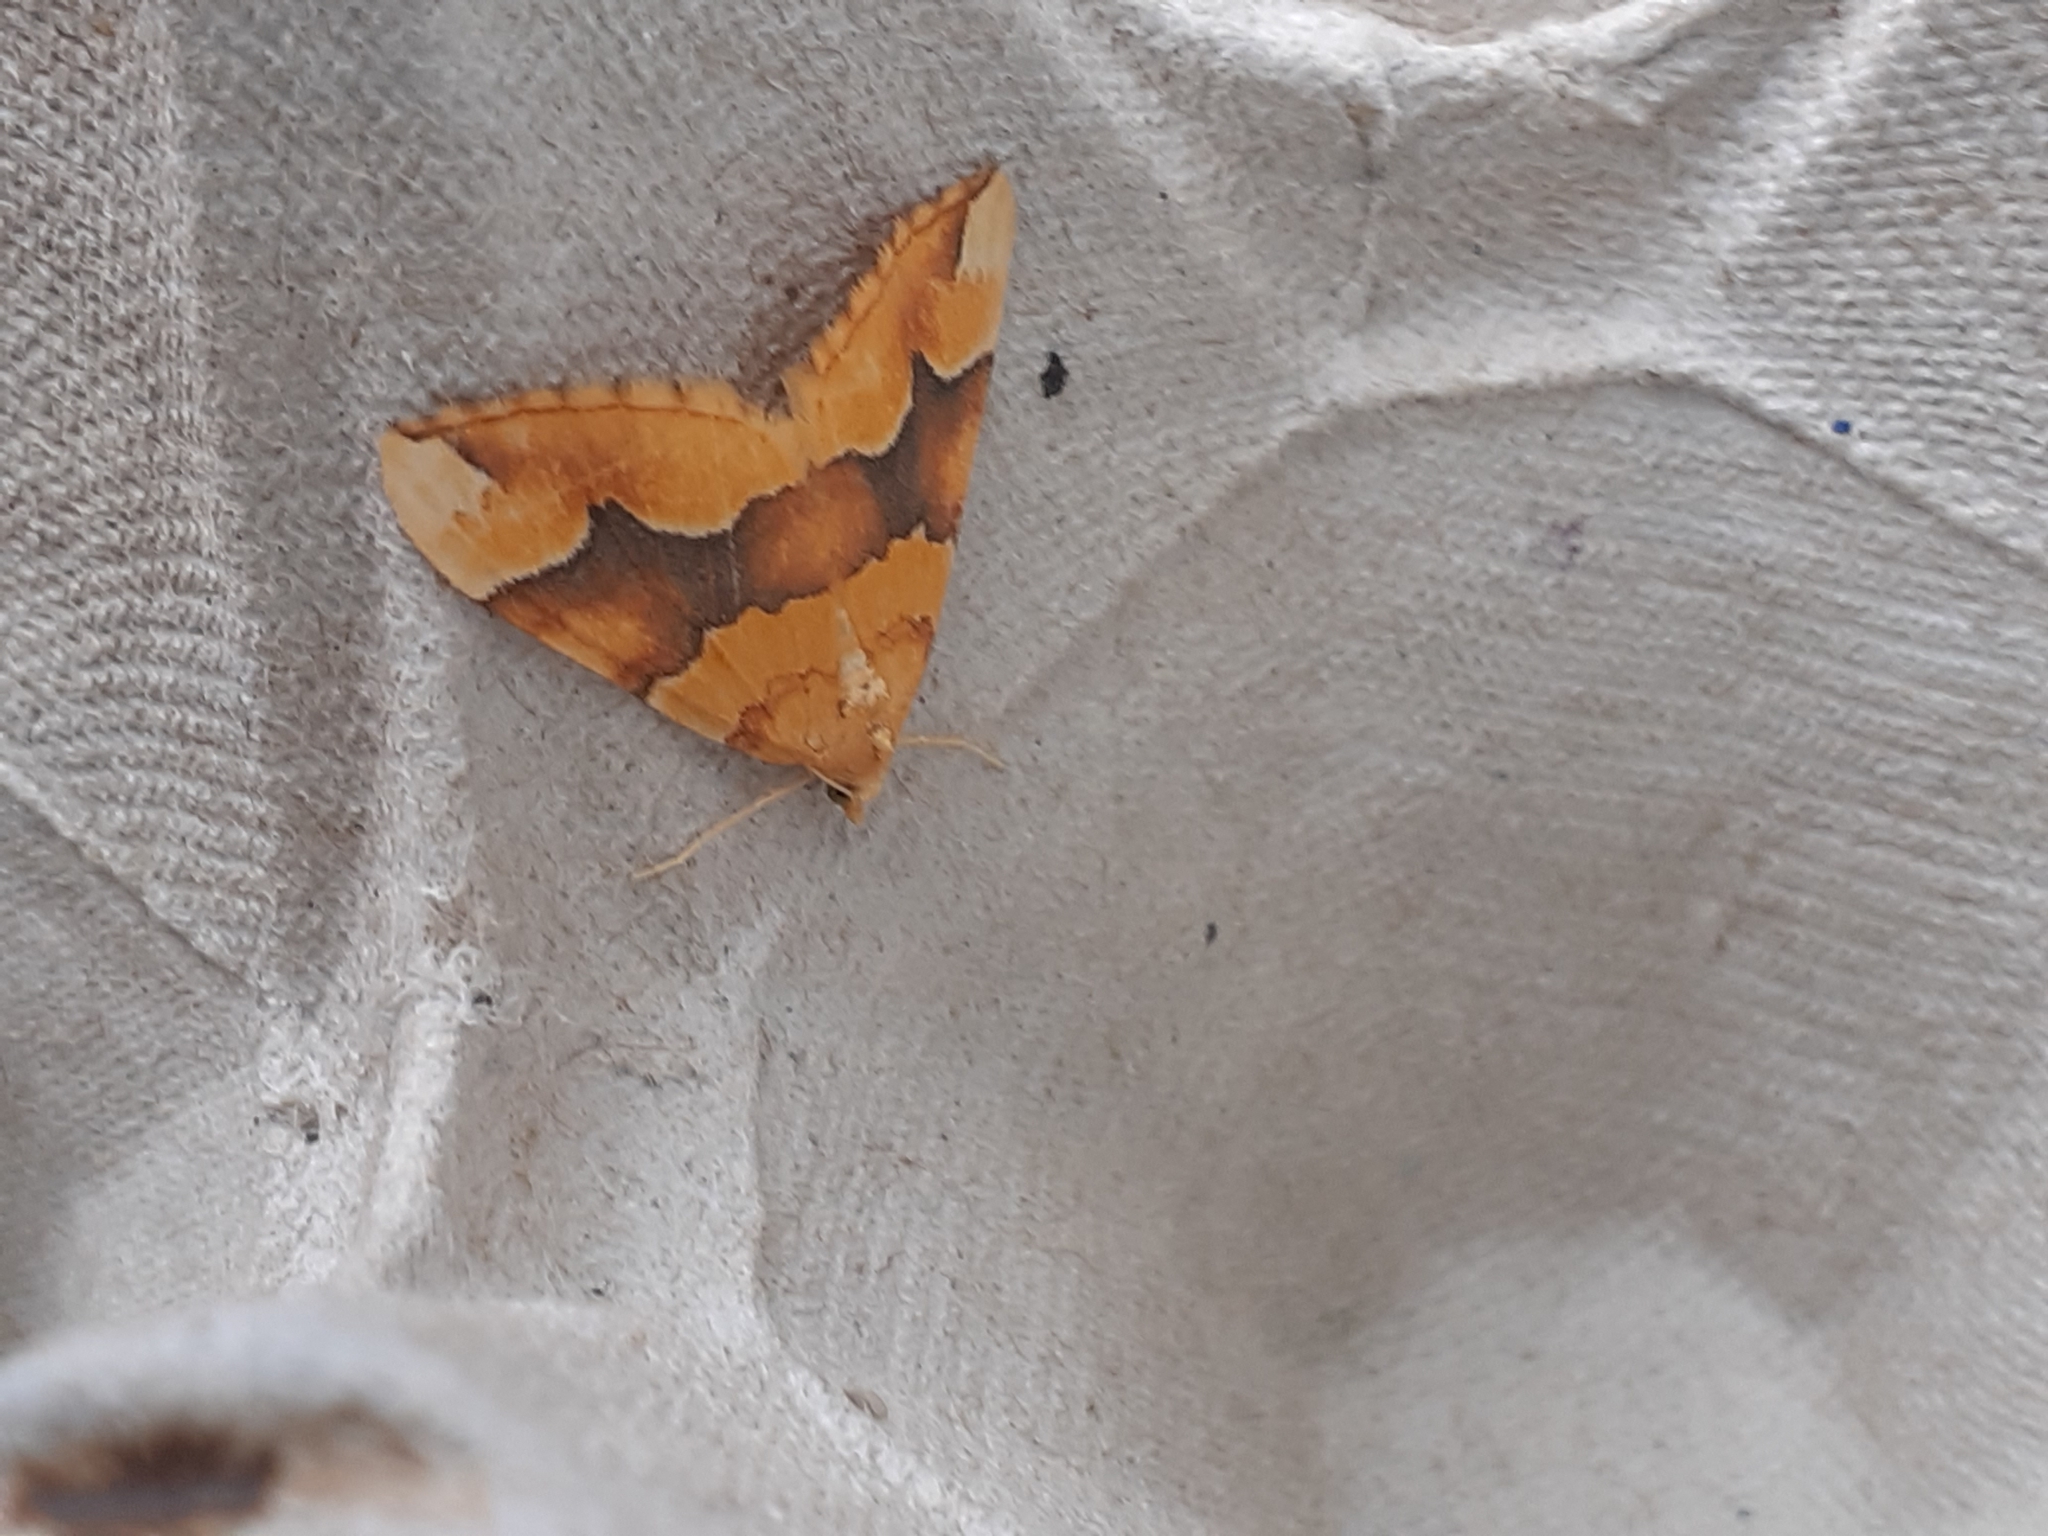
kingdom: Animalia
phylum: Arthropoda
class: Insecta
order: Lepidoptera
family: Geometridae
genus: Cidaria
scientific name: Cidaria fulvata
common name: Barred yellow
